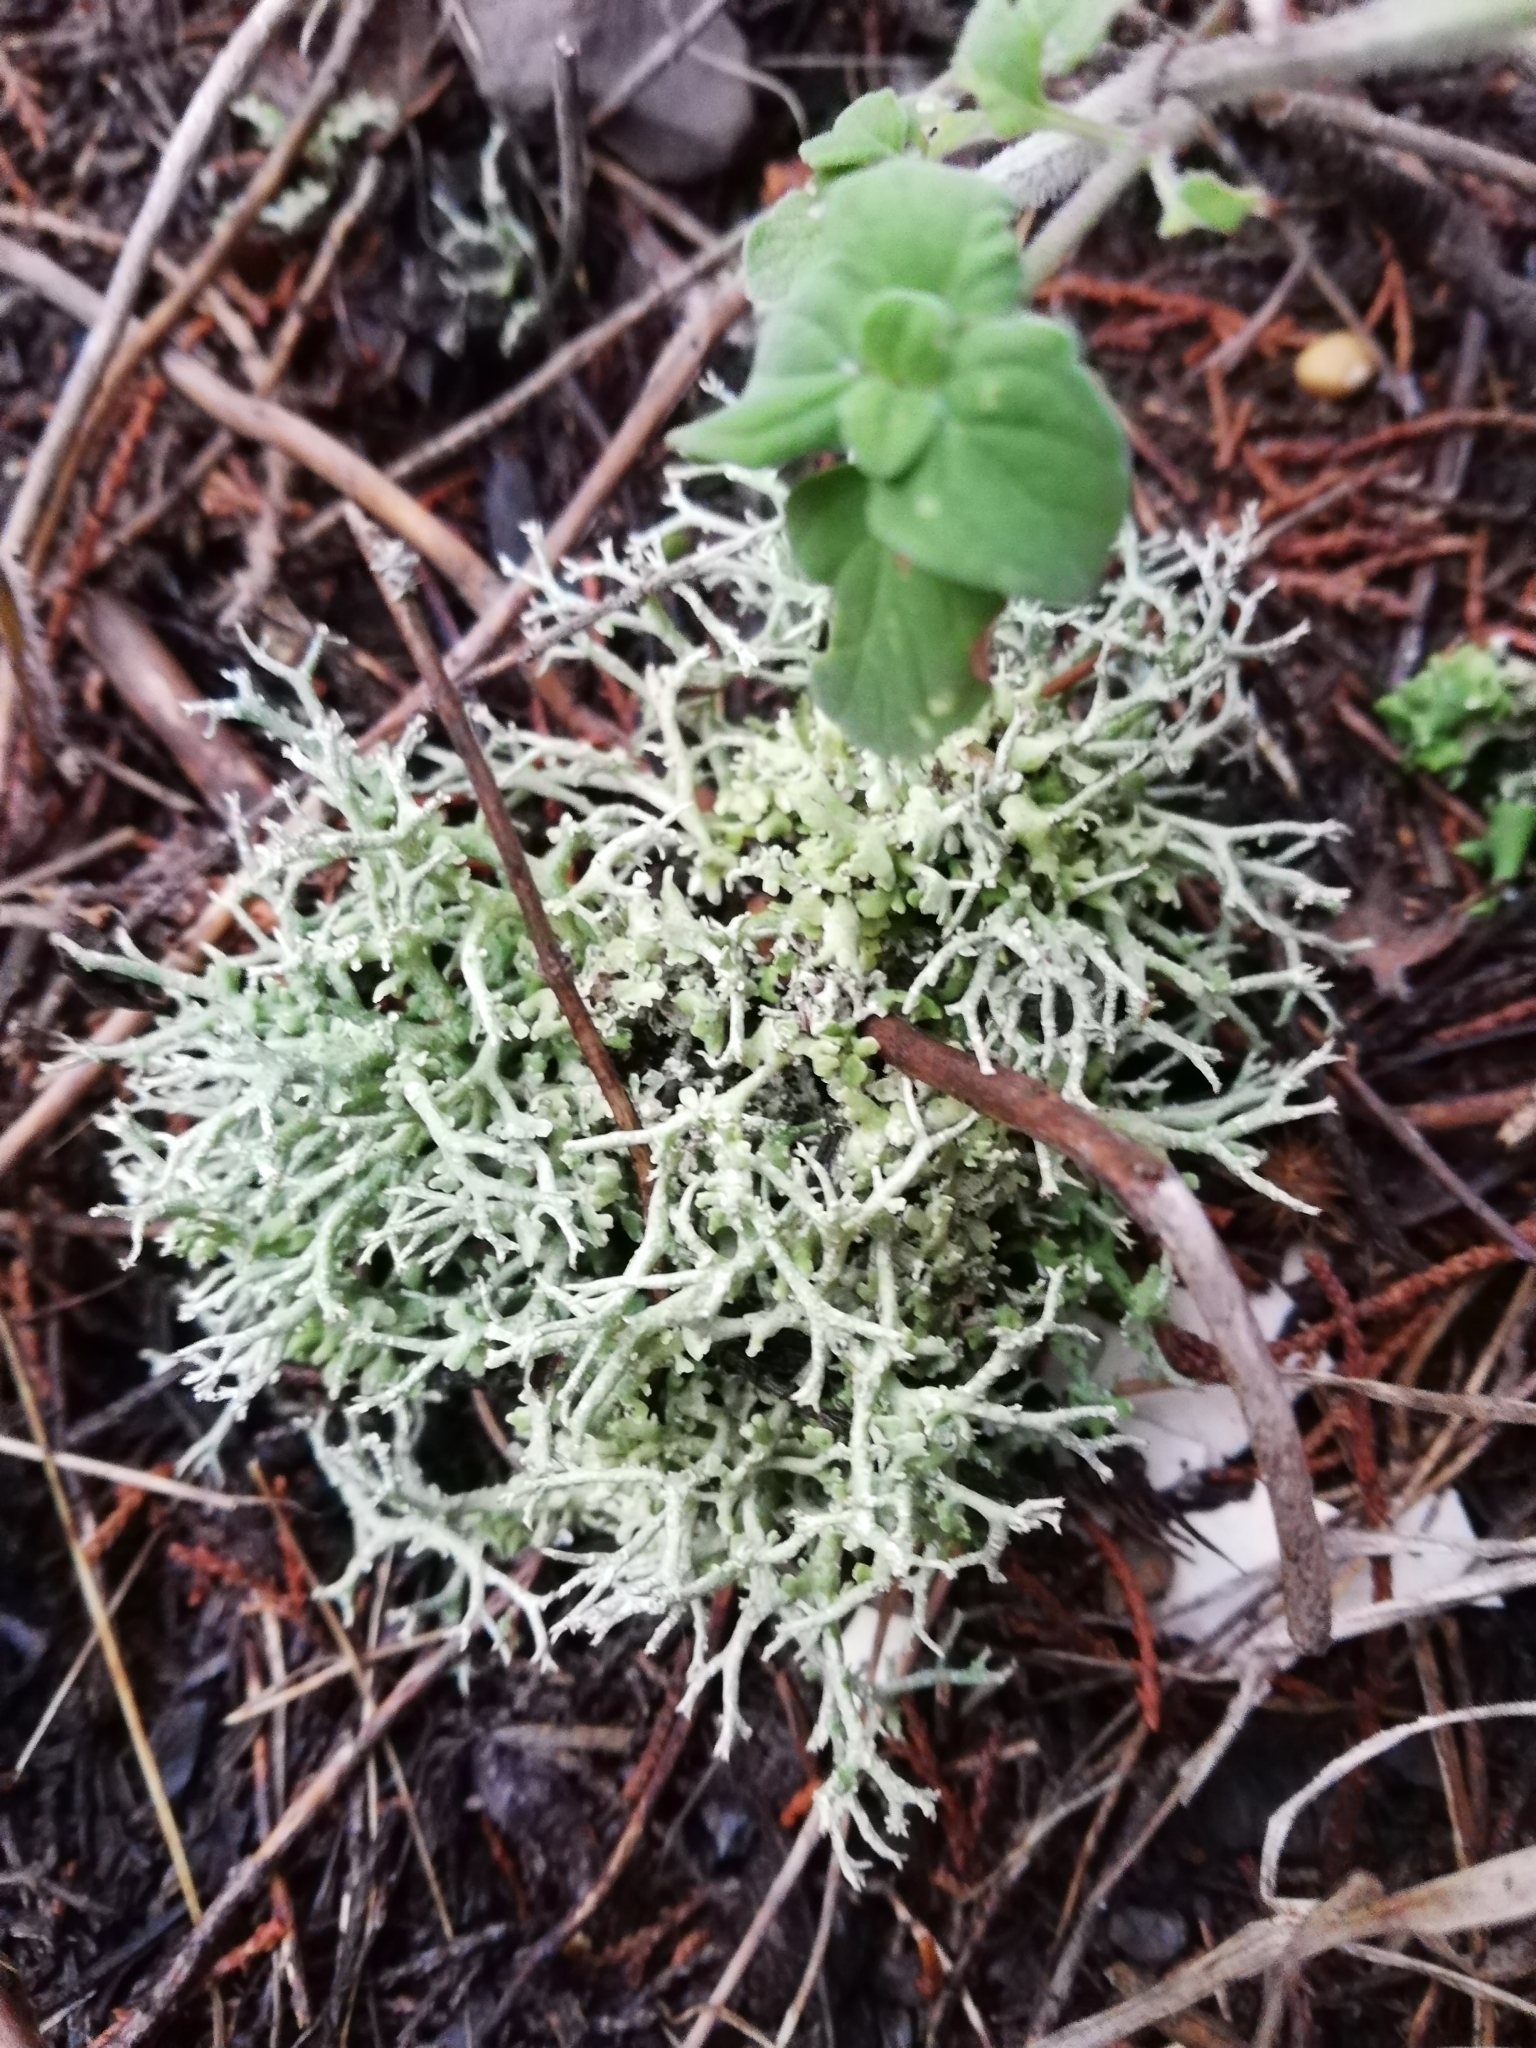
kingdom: Fungi
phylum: Ascomycota
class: Lecanoromycetes
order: Lecanorales
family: Cladoniaceae
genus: Cladonia
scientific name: Cladonia rangiformis
